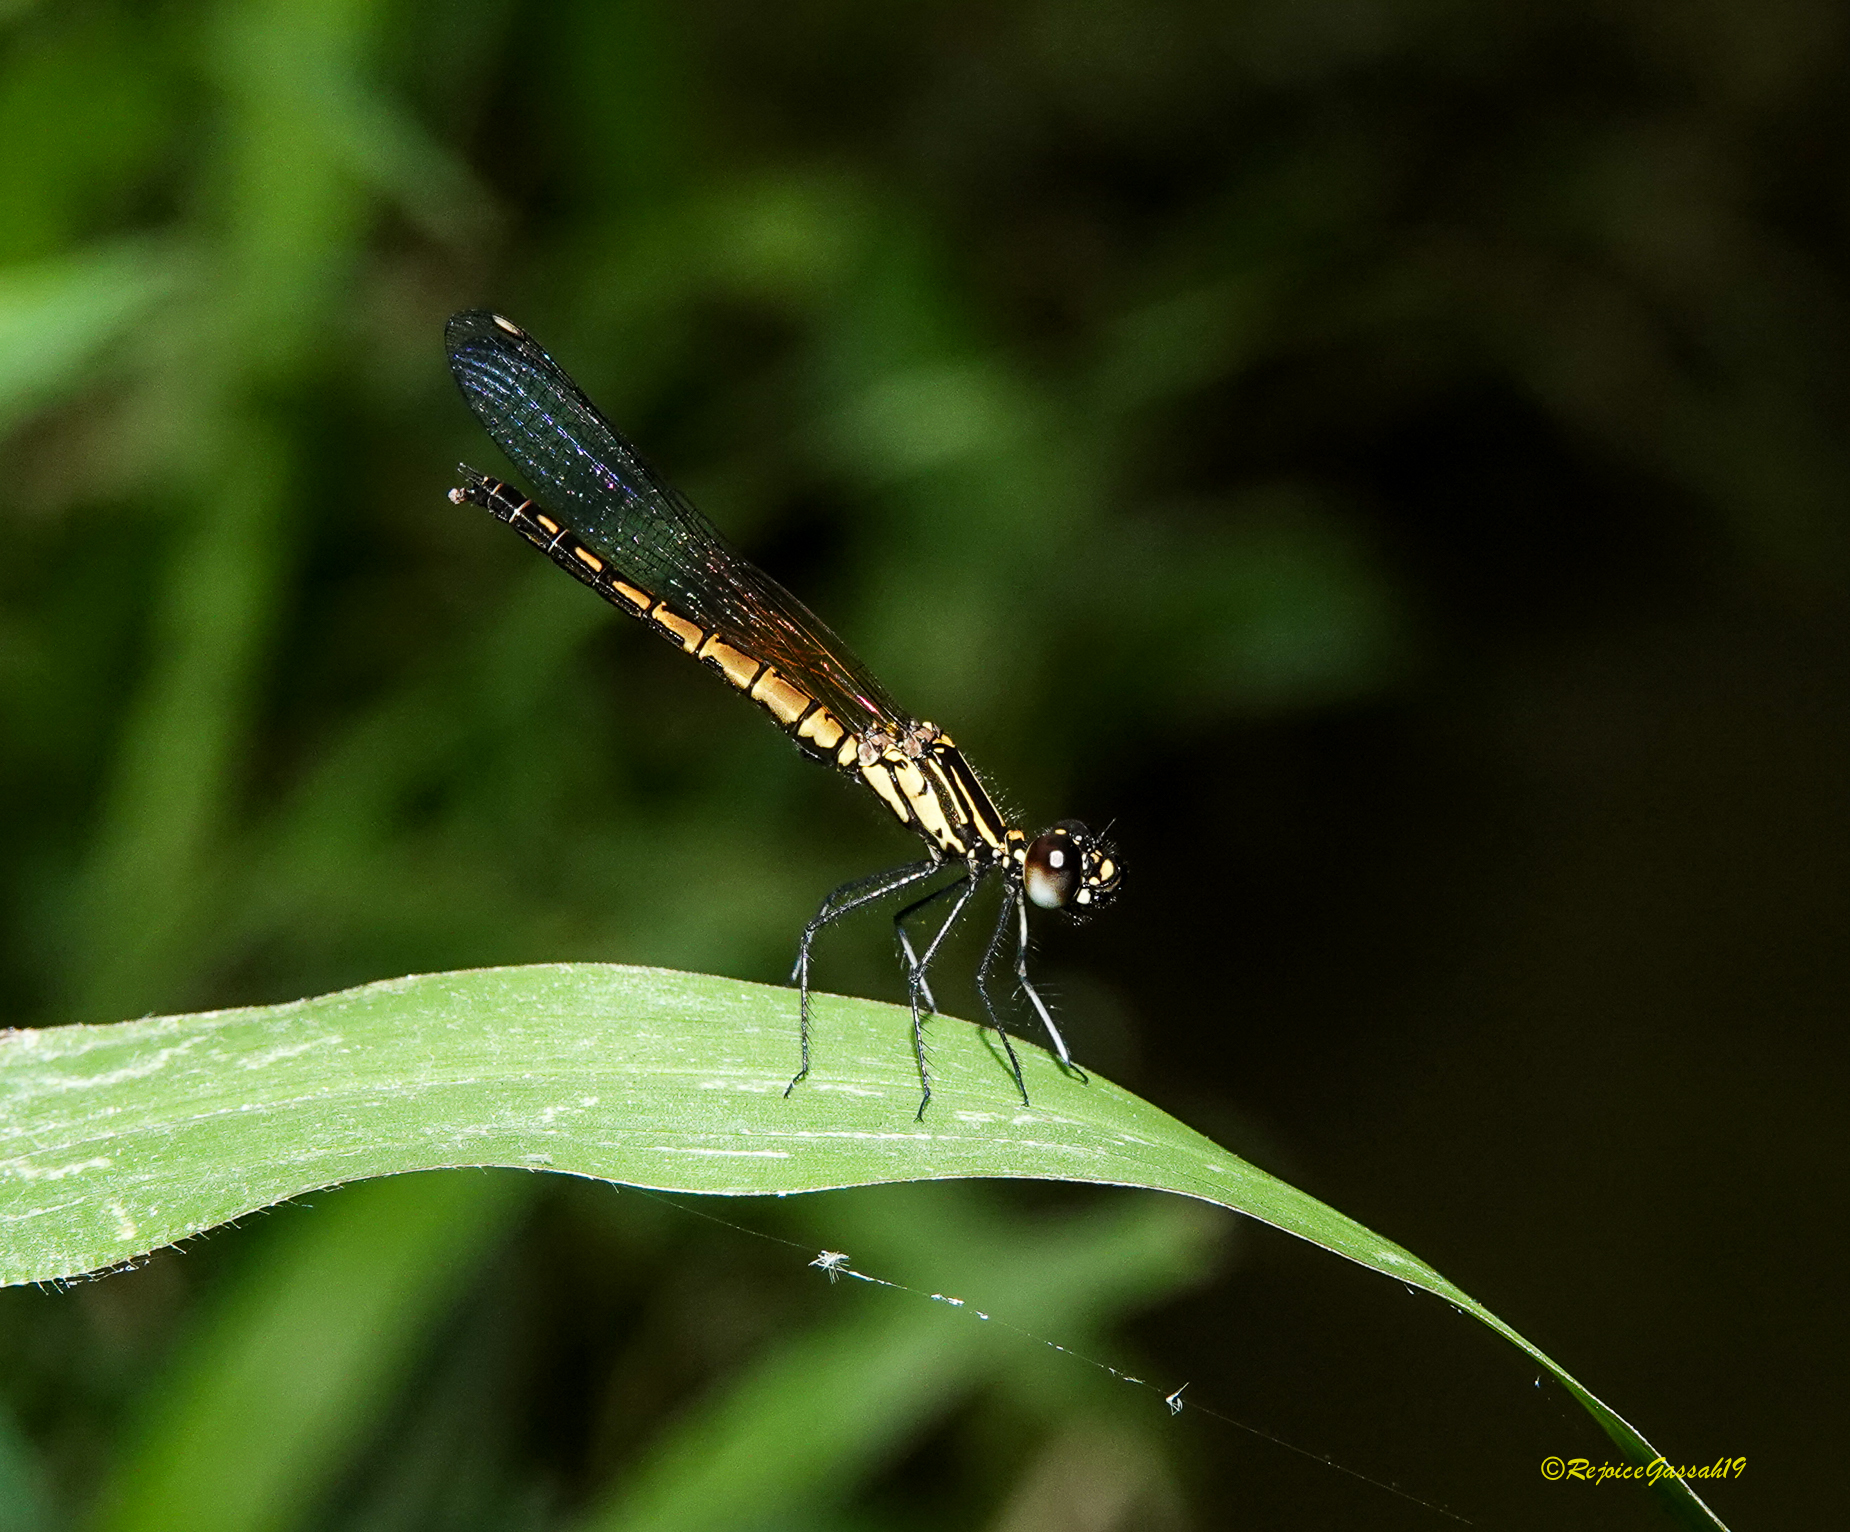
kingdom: Animalia
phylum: Arthropoda
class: Insecta
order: Odonata
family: Chlorocyphidae
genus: Libellago
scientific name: Libellago lineata
